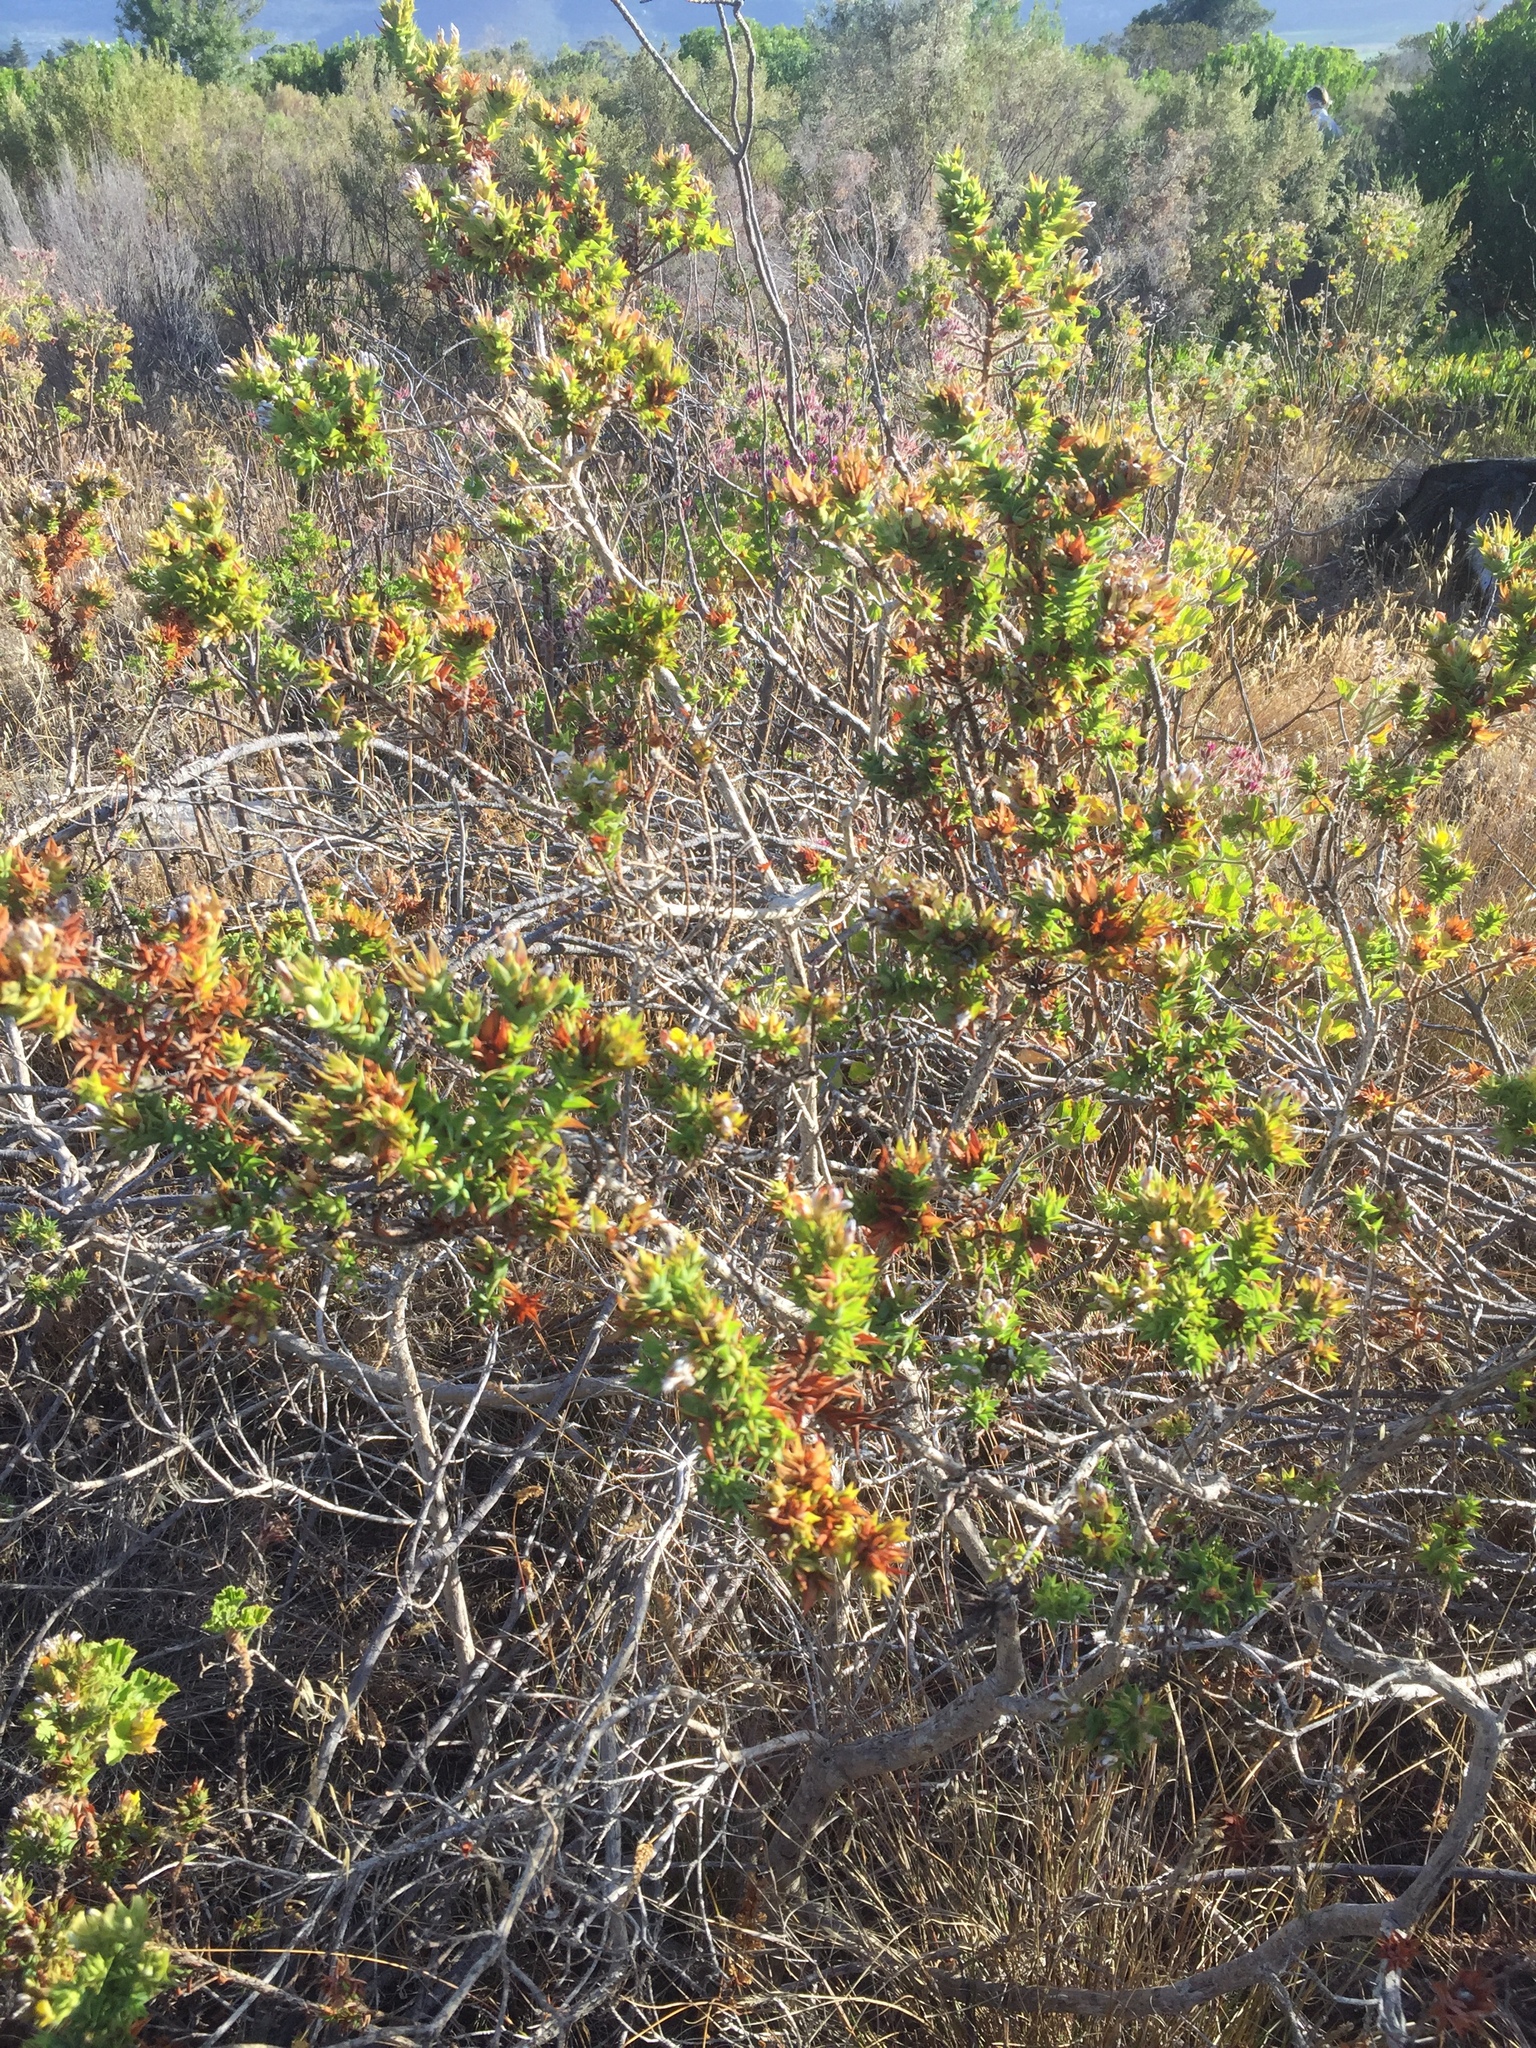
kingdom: Plantae
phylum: Tracheophyta
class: Magnoliopsida
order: Fabales
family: Fabaceae
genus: Aspalathus
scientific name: Aspalathus cordata
